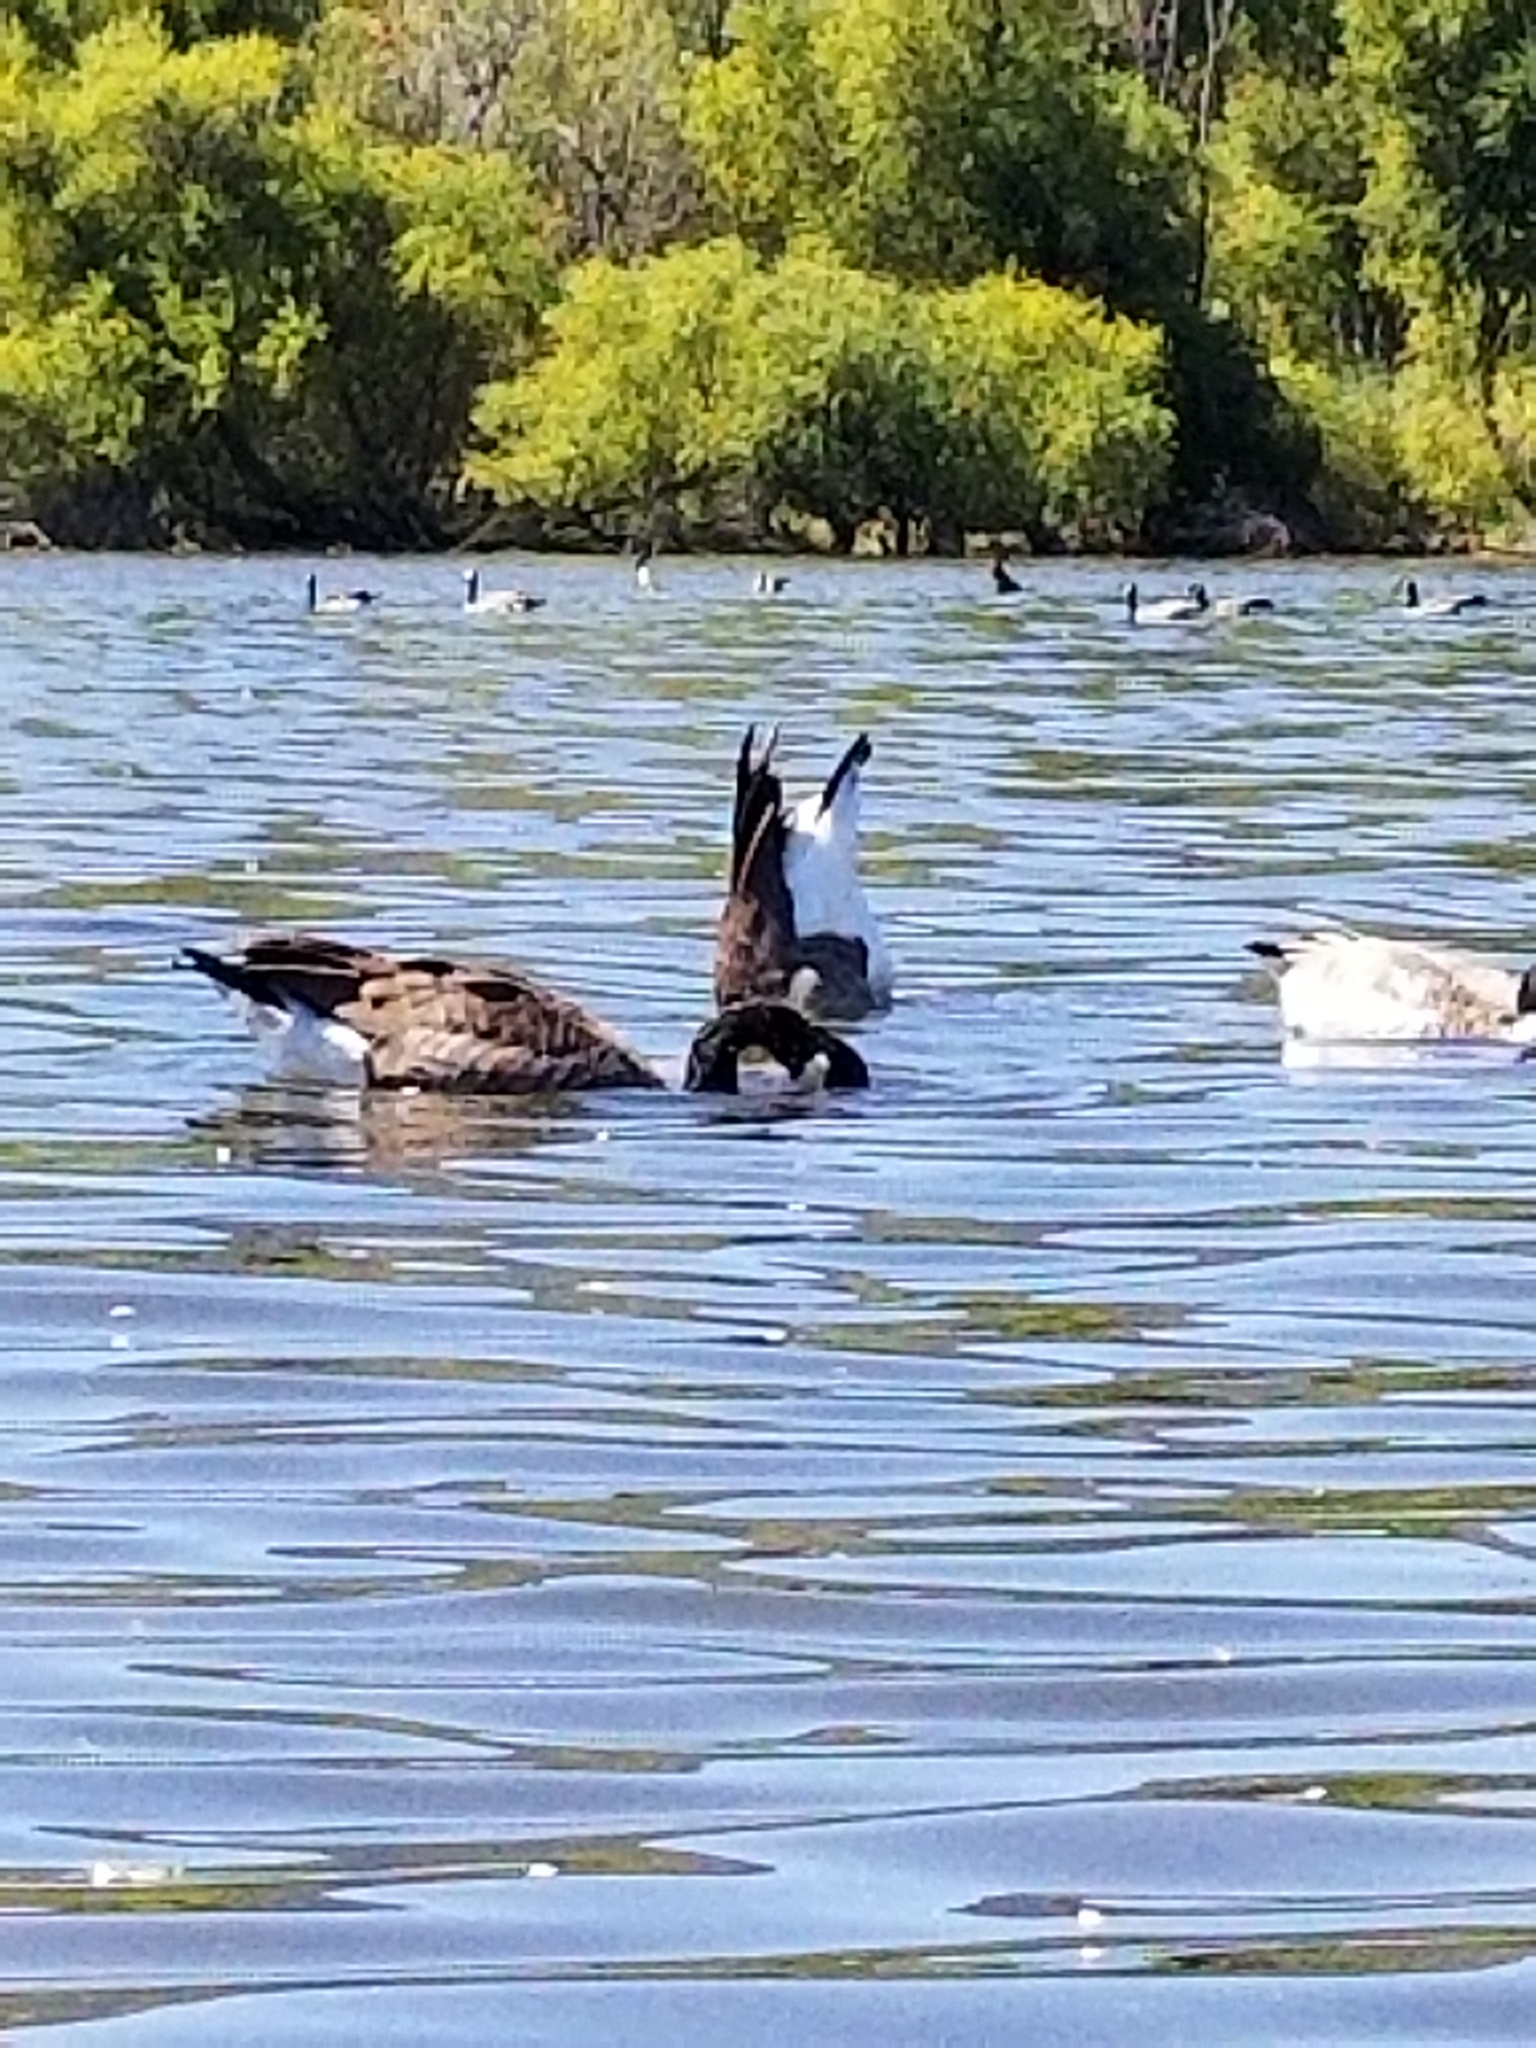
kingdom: Animalia
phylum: Chordata
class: Aves
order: Anseriformes
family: Anatidae
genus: Branta
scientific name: Branta canadensis
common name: Canada goose
